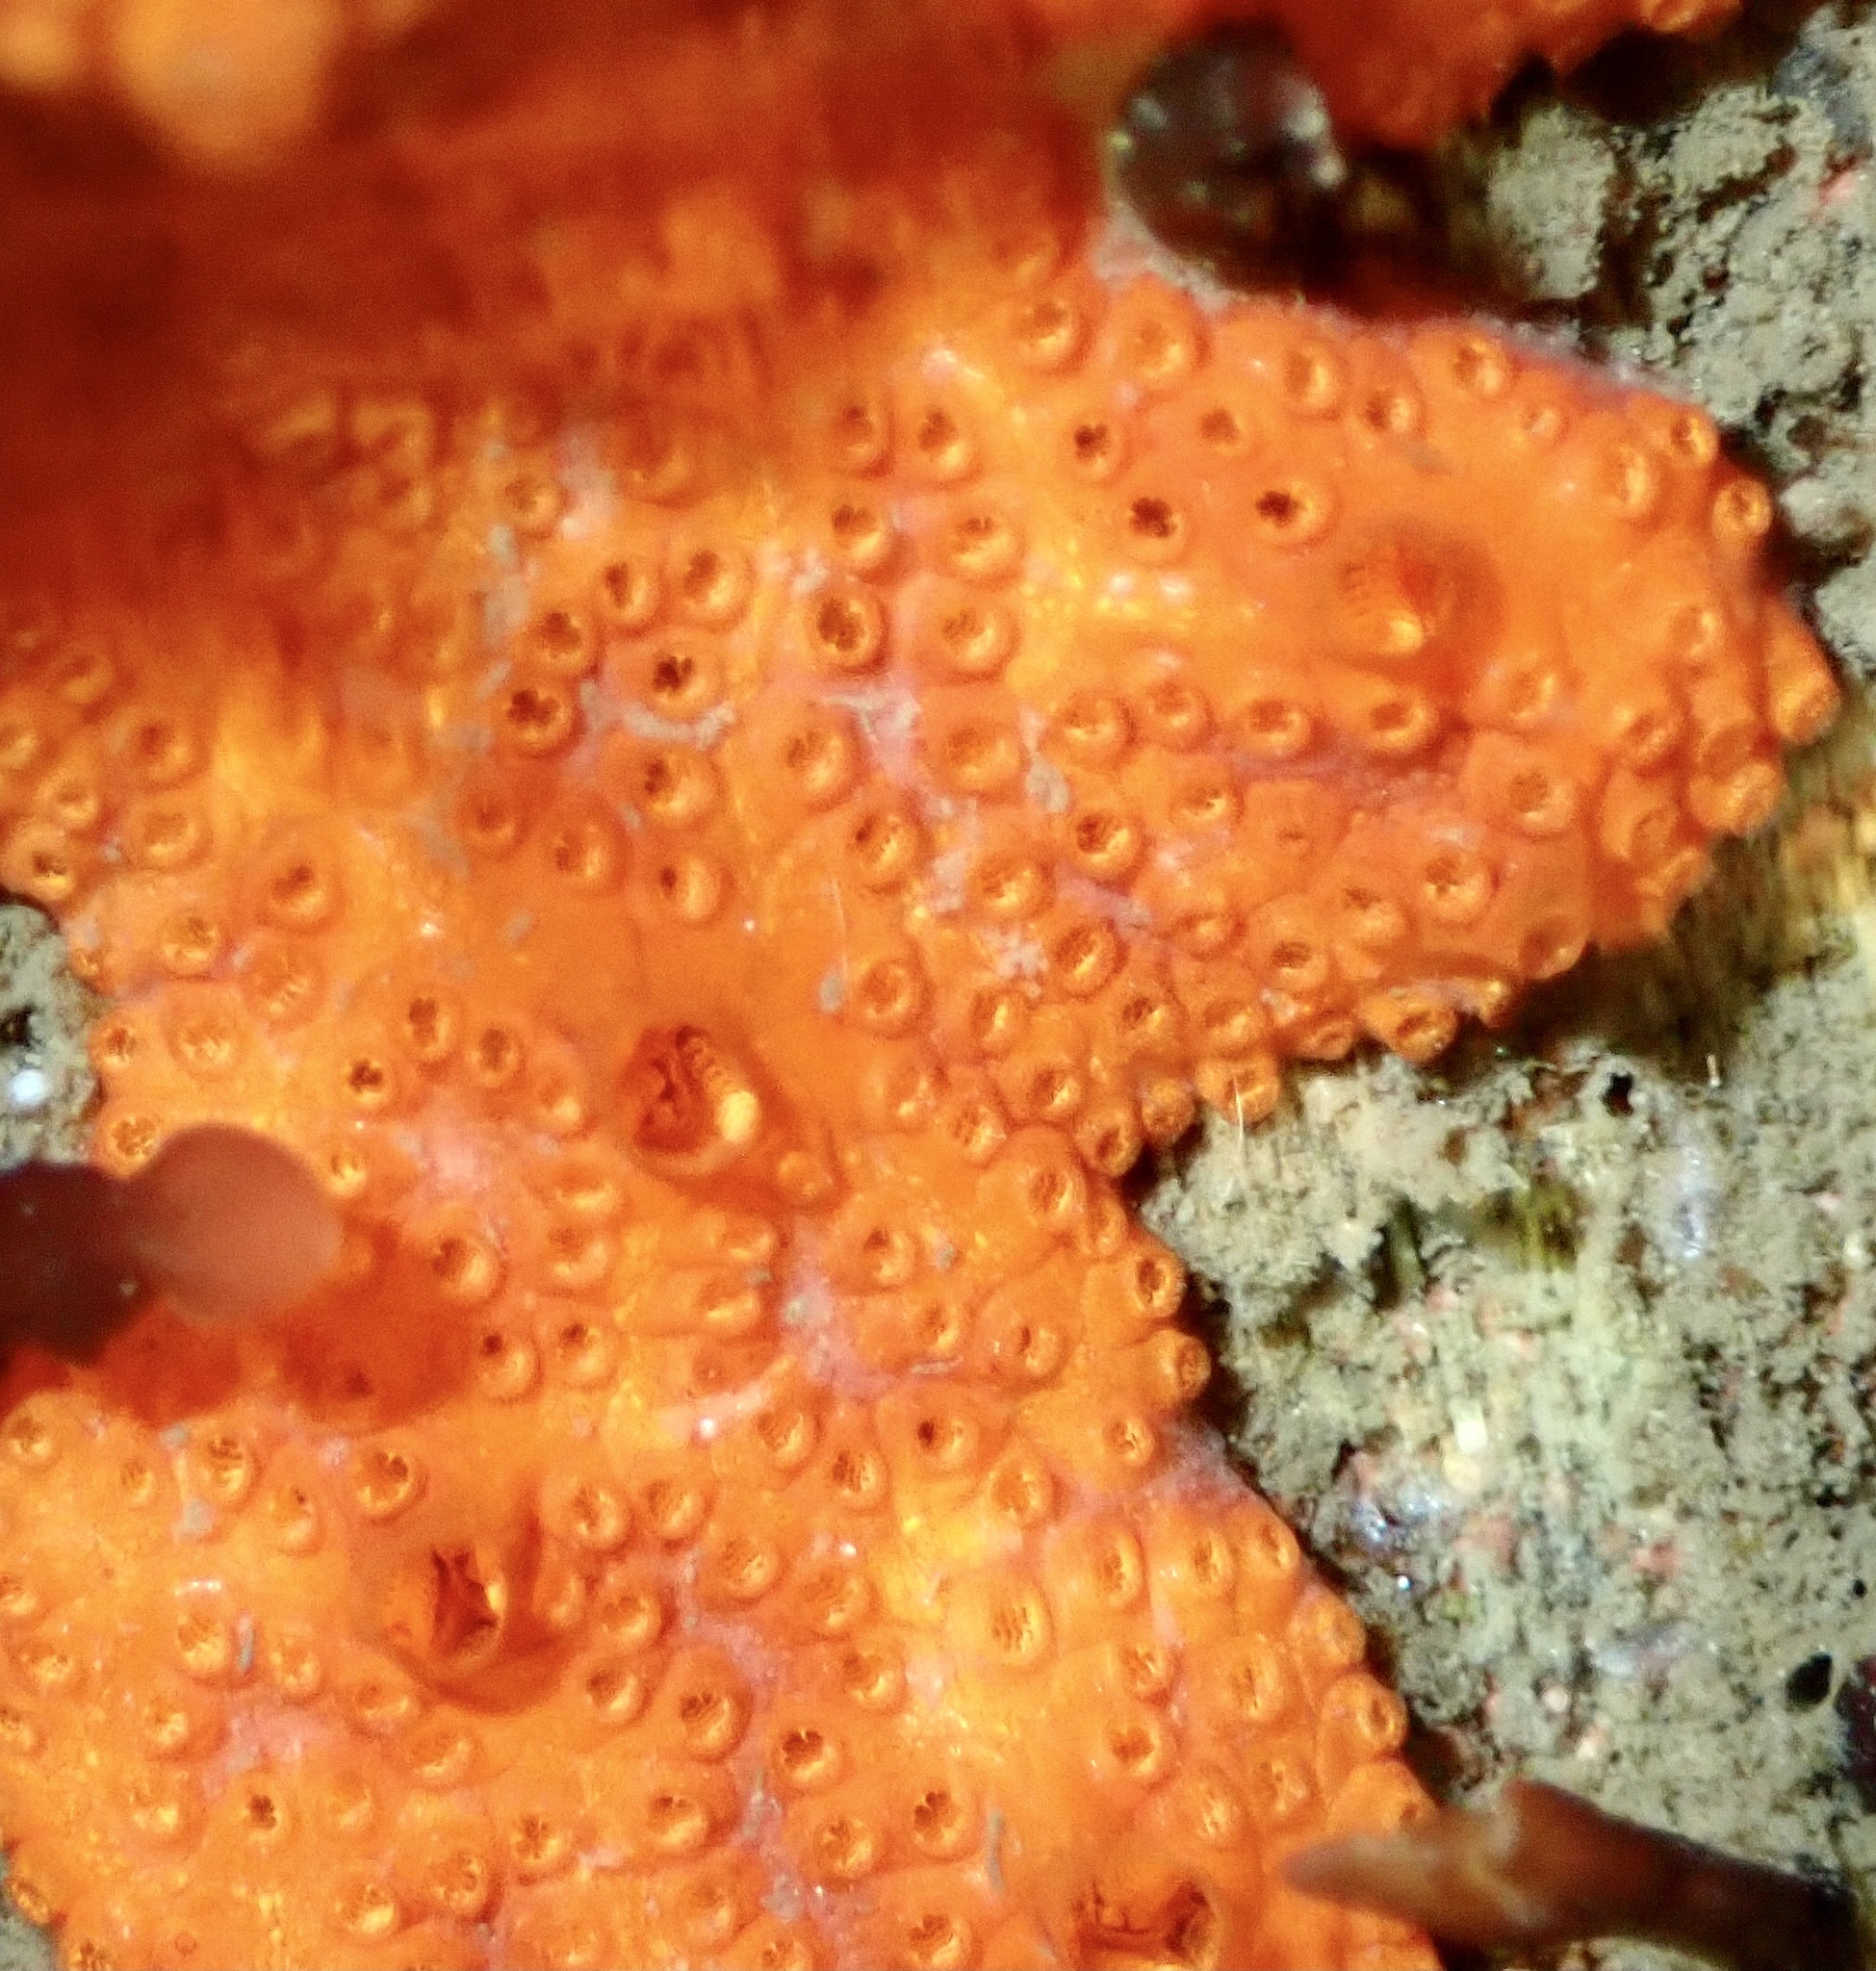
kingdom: Animalia
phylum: Chordata
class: Ascidiacea
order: Stolidobranchia
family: Styelidae
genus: Botrylloides
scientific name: Botrylloides violaceus
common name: Colonial sea squirt
